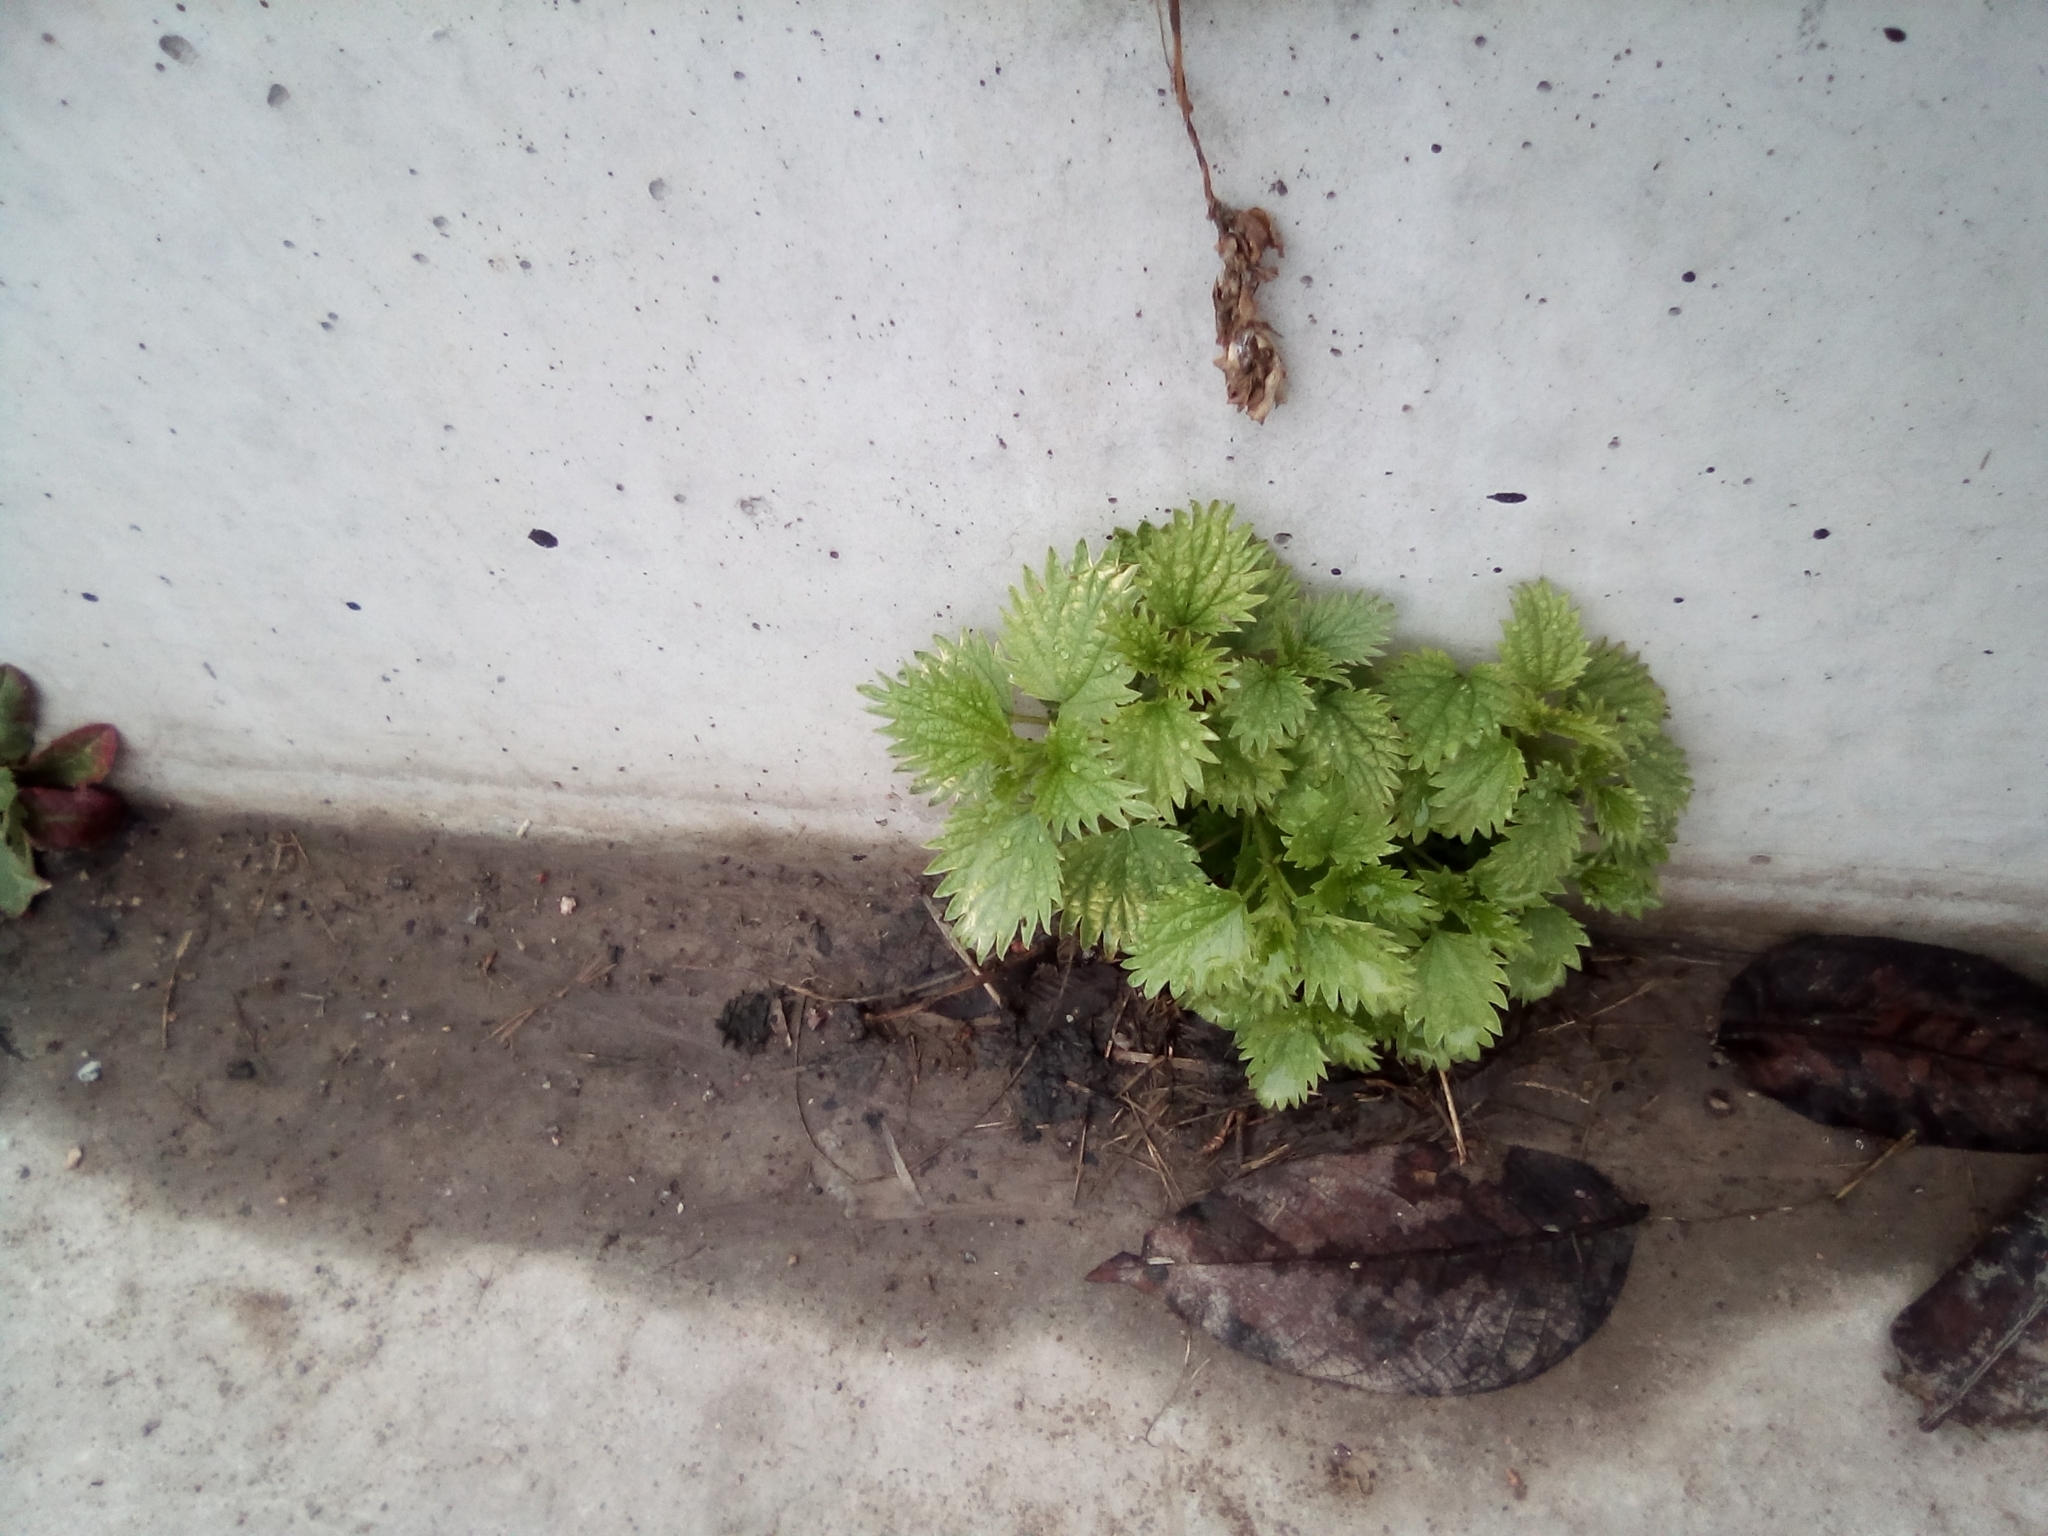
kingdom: Plantae
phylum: Tracheophyta
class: Magnoliopsida
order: Rosales
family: Urticaceae
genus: Urtica
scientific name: Urtica dioica
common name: Common nettle
